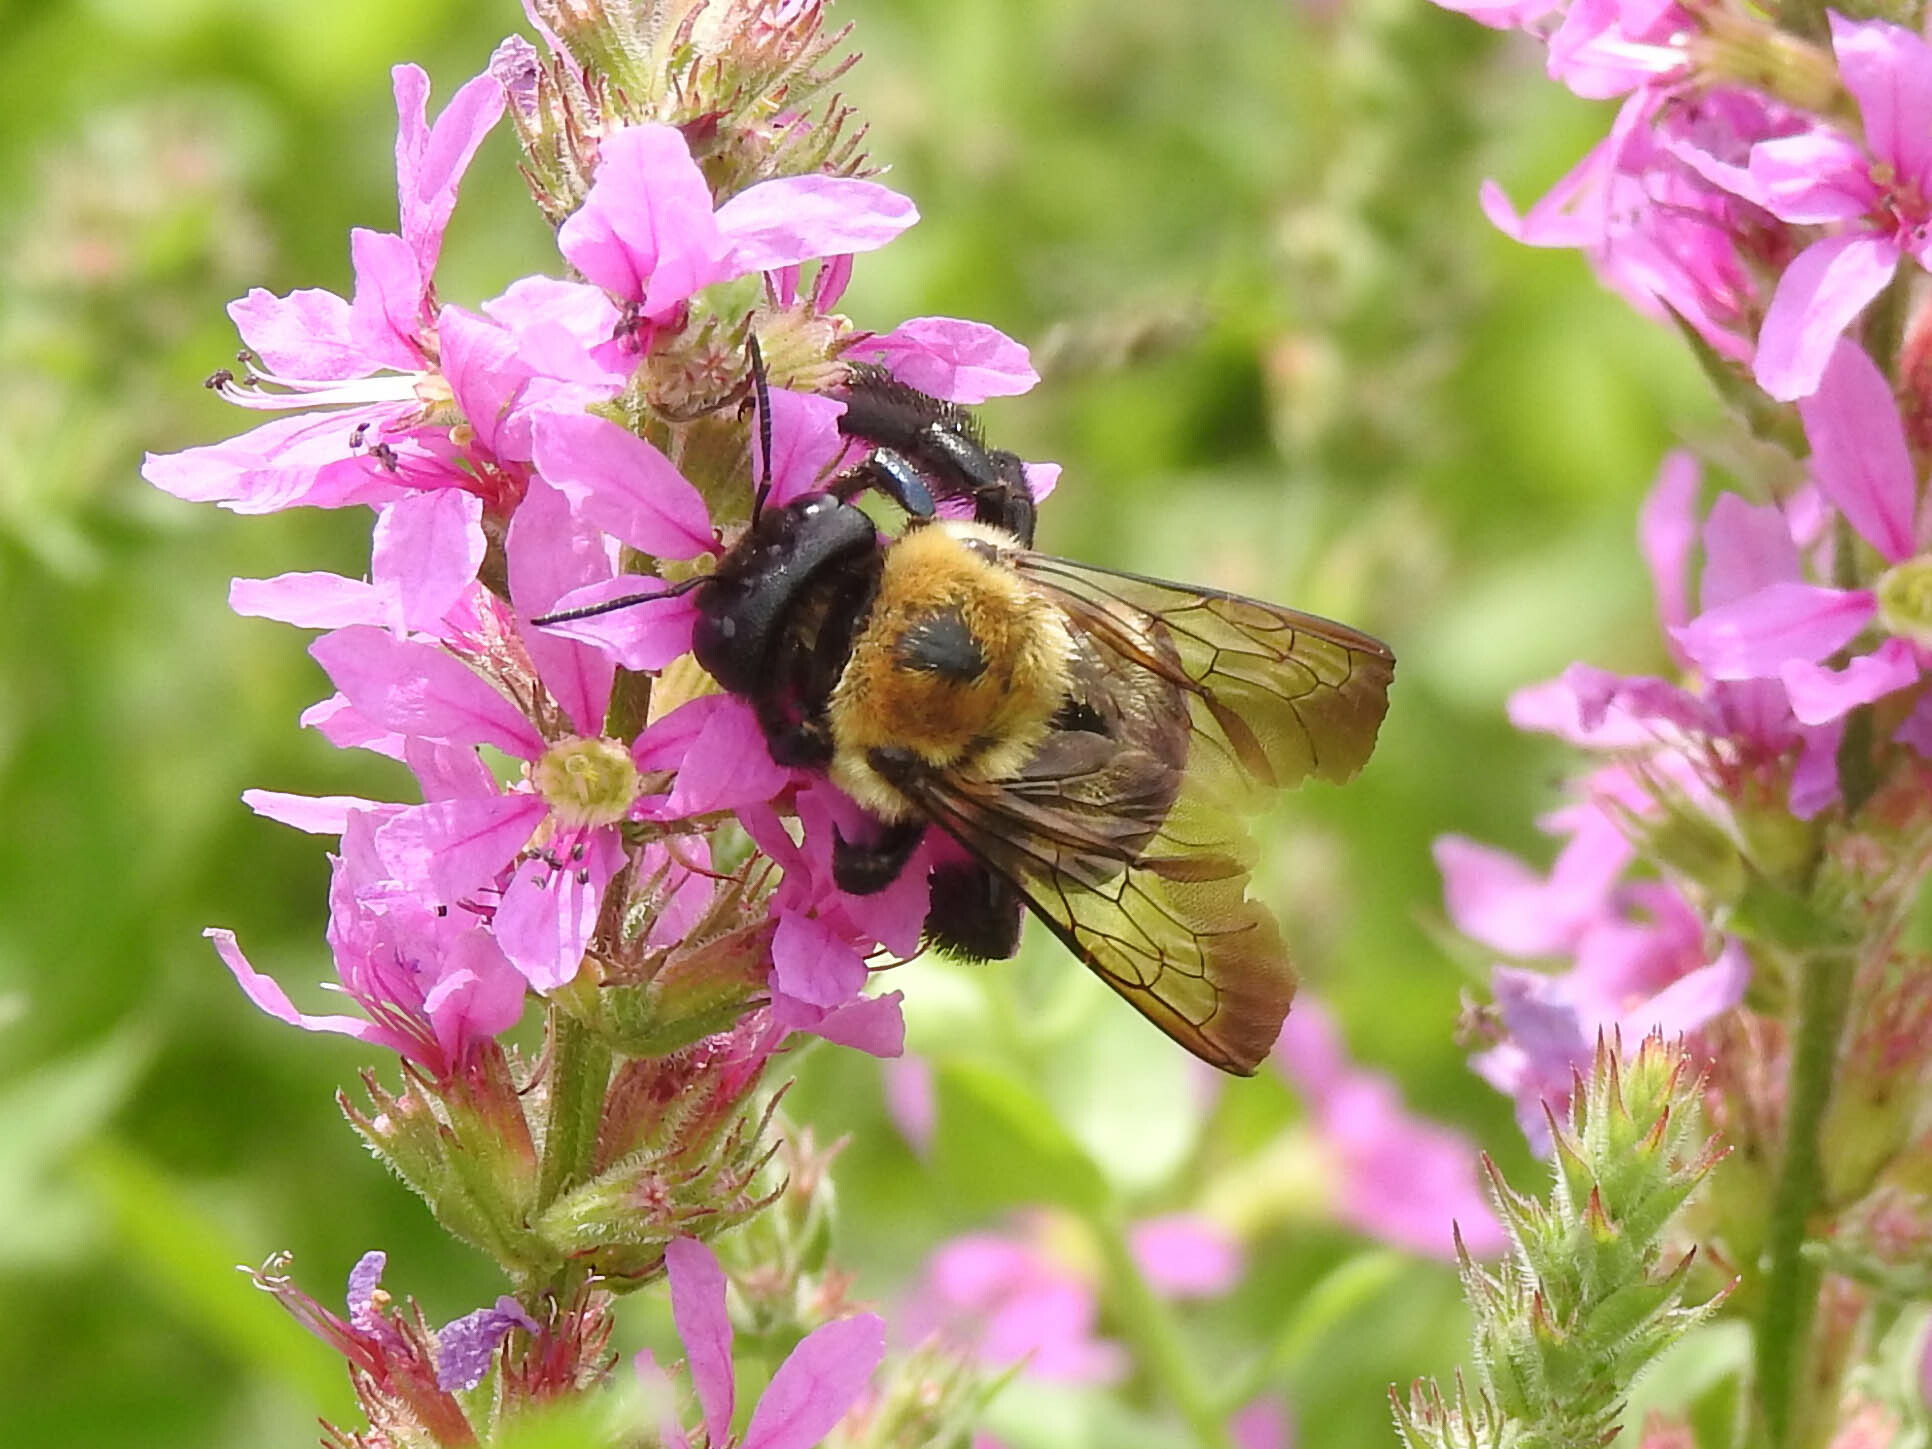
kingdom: Animalia
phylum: Arthropoda
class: Insecta
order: Hymenoptera
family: Apidae
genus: Xylocopa
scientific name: Xylocopa virginica
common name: Carpenter bee
